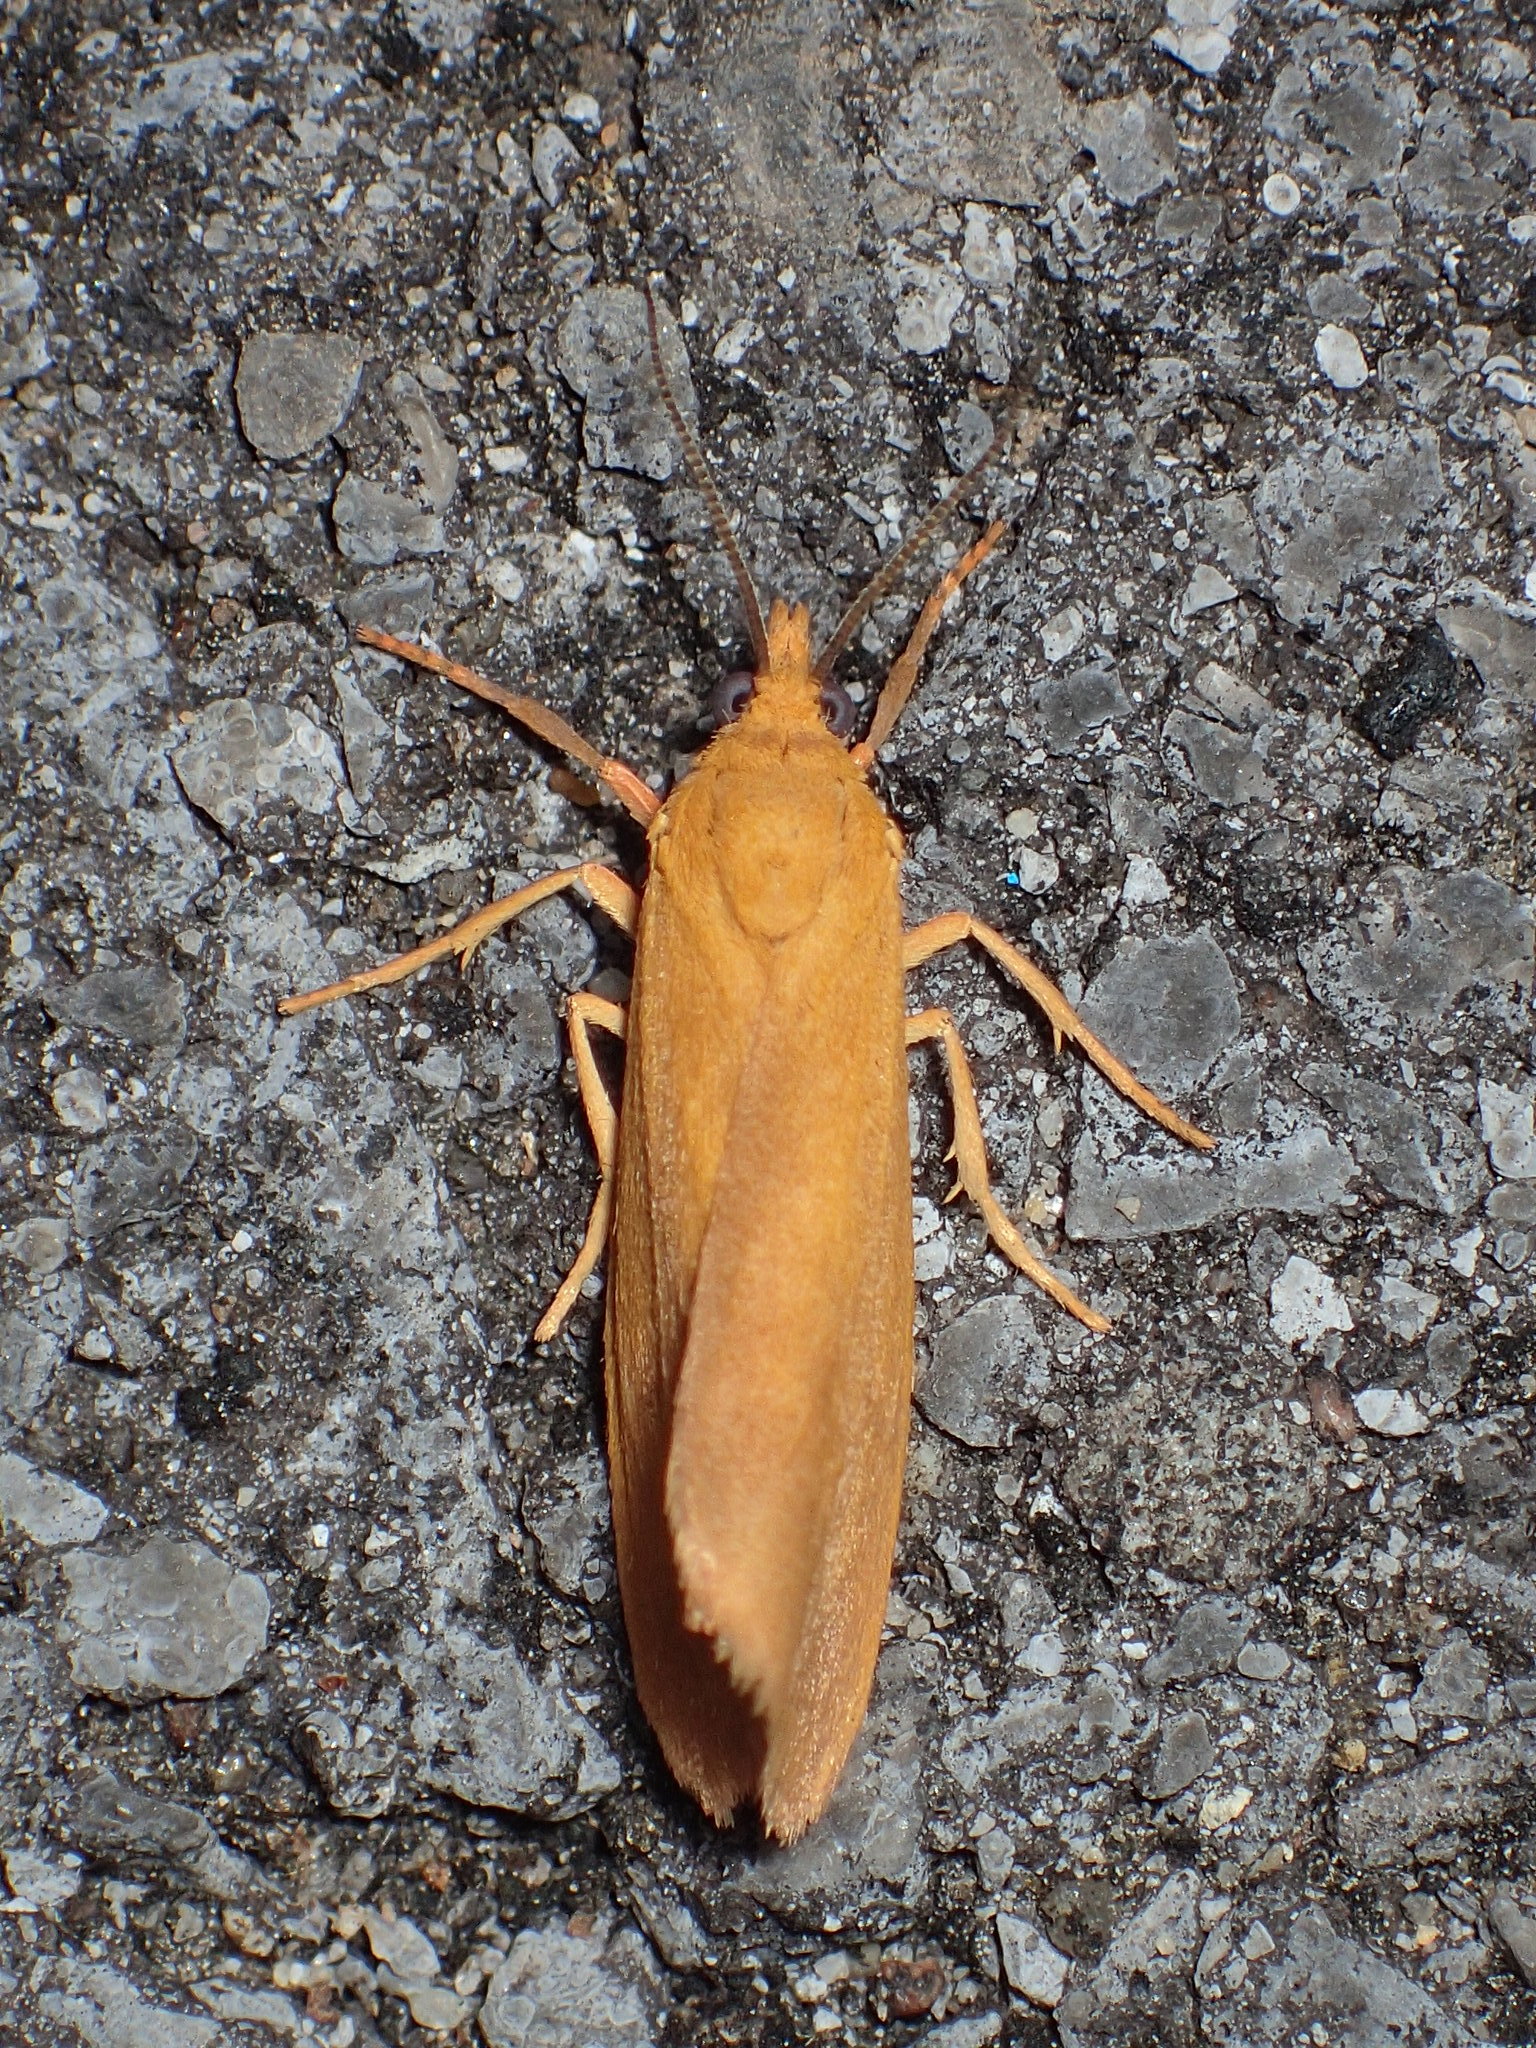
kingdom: Animalia
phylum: Arthropoda
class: Insecta
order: Lepidoptera
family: Erebidae
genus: Virbia
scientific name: Virbia aurantiaca
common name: Orange virbia moth
